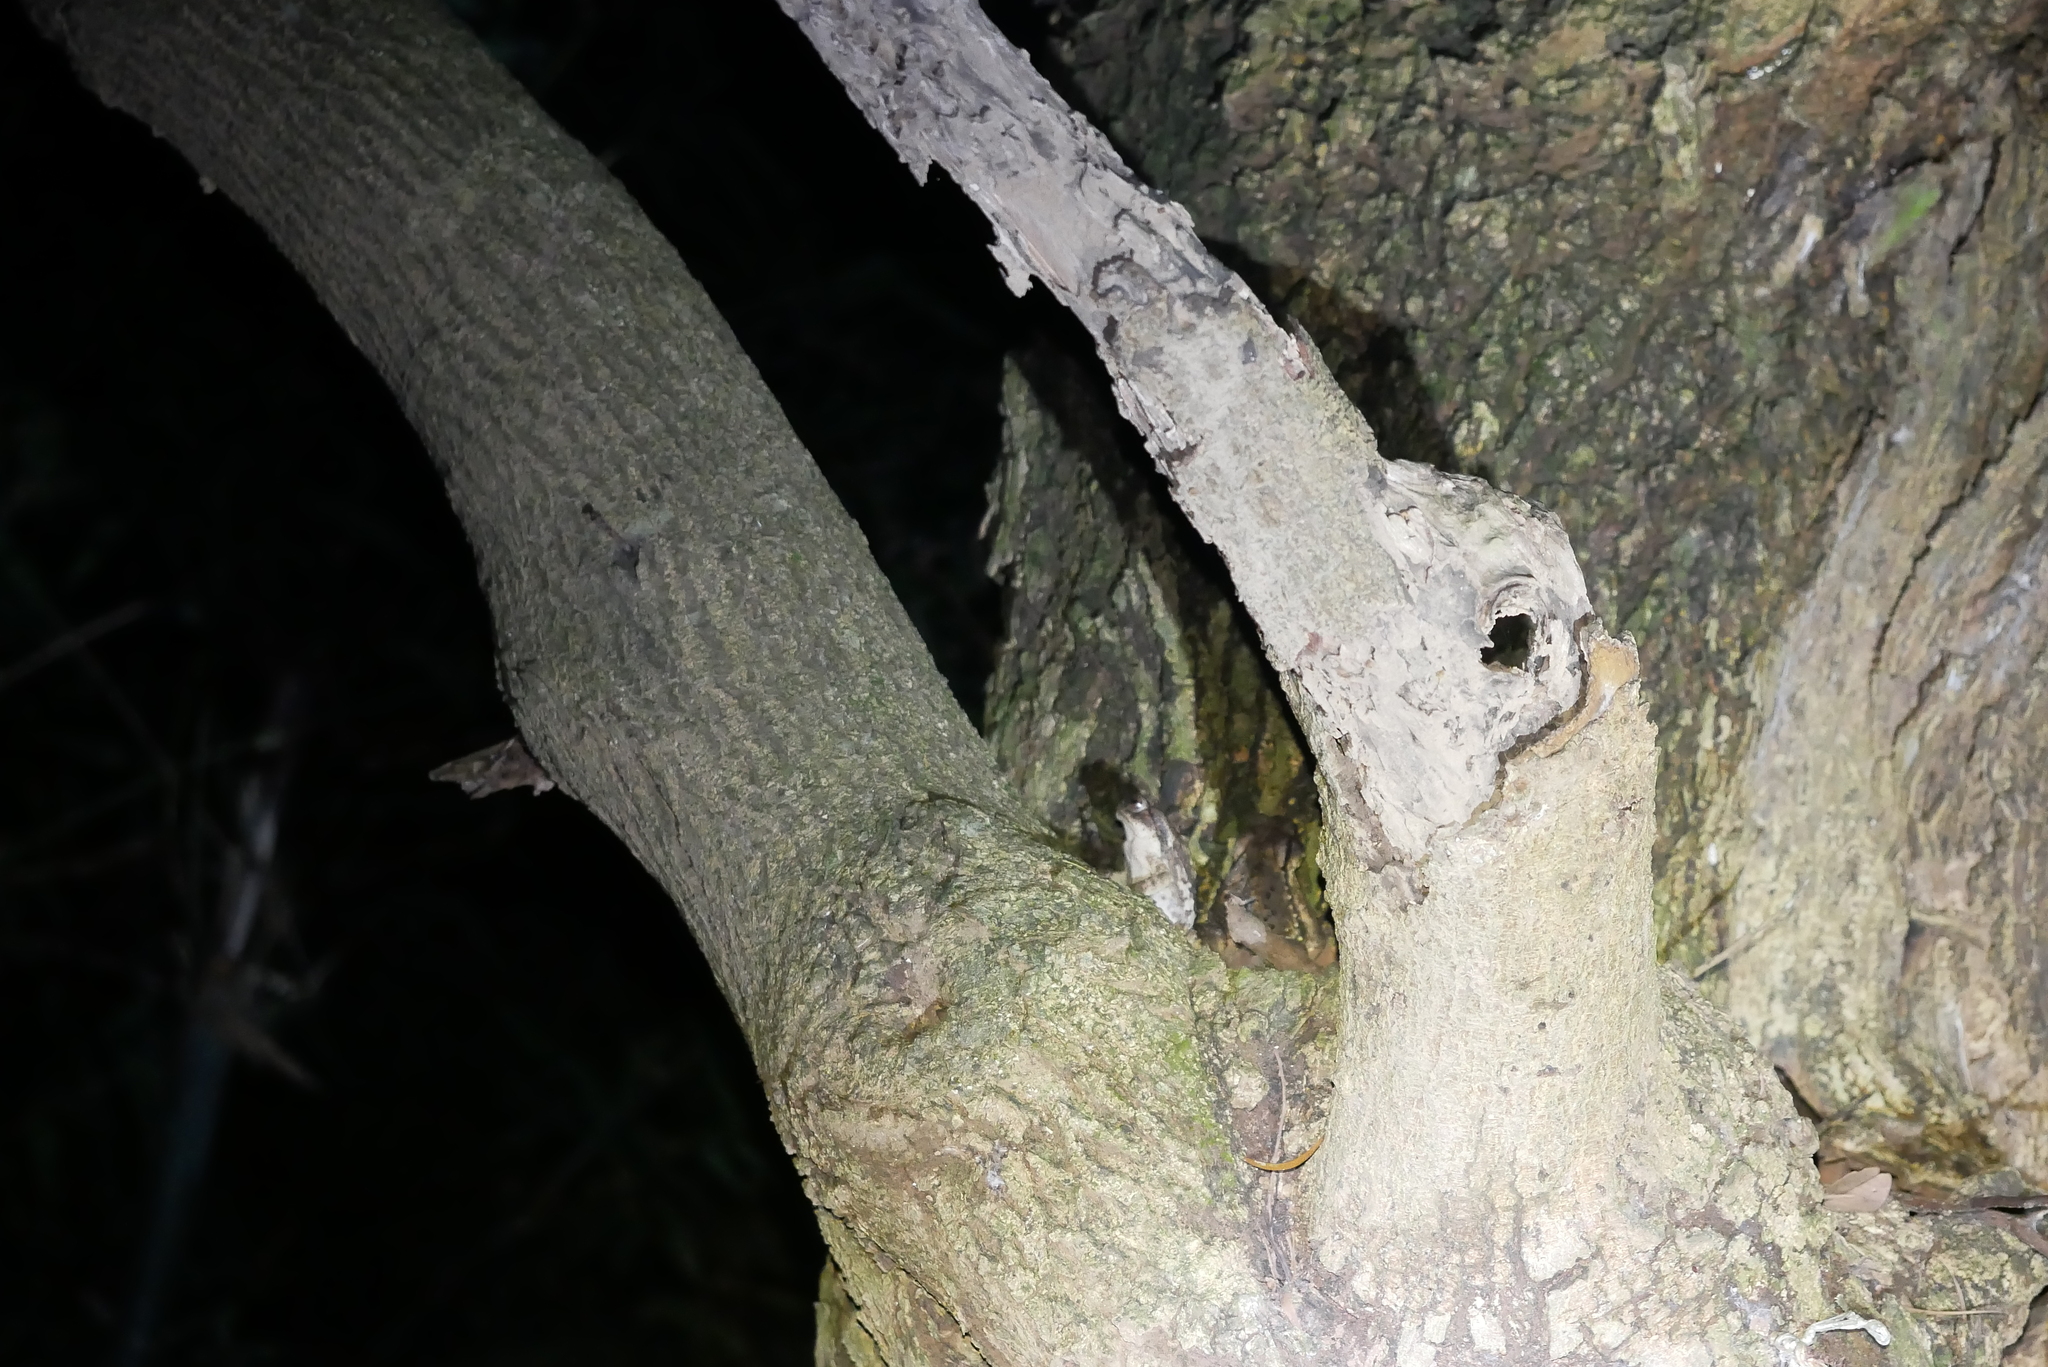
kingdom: Animalia
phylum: Chordata
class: Amphibia
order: Anura
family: Bufonidae
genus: Bufo
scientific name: Bufo bankorensis
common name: Bankor toad
